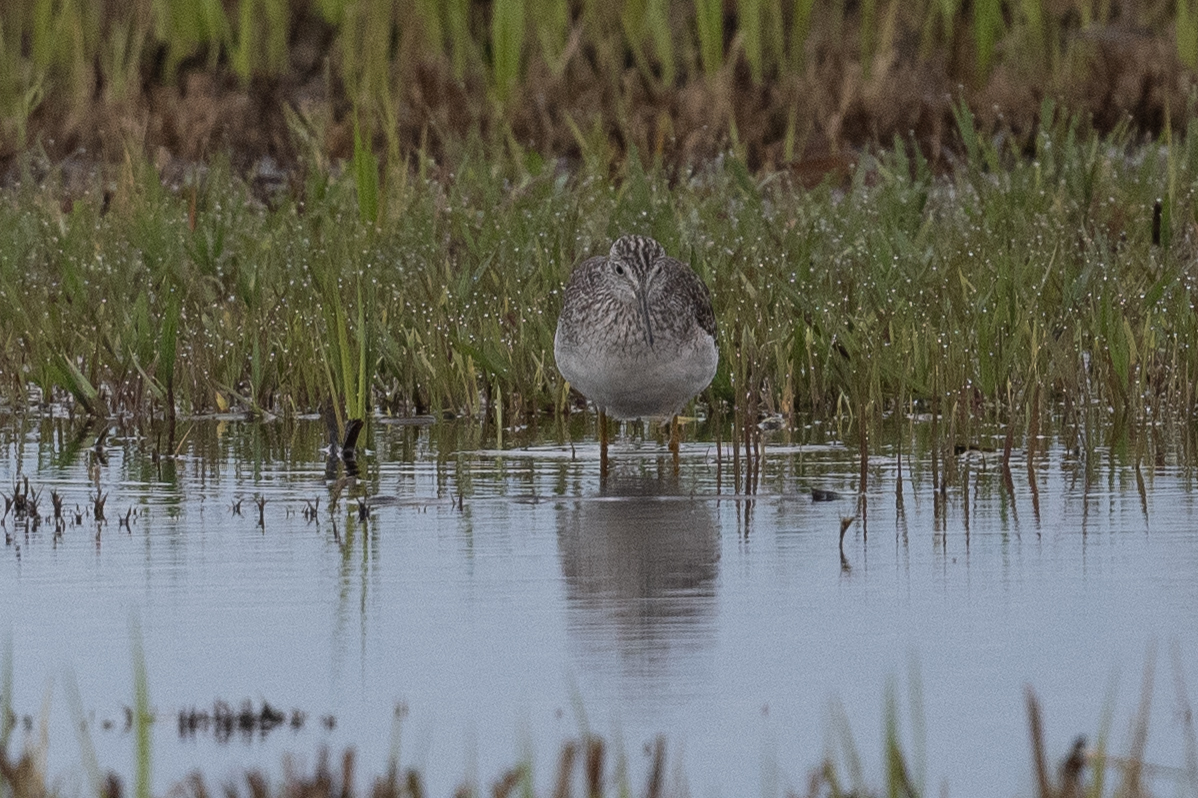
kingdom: Animalia
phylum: Chordata
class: Aves
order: Charadriiformes
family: Scolopacidae
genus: Tringa
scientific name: Tringa melanoleuca
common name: Greater yellowlegs
